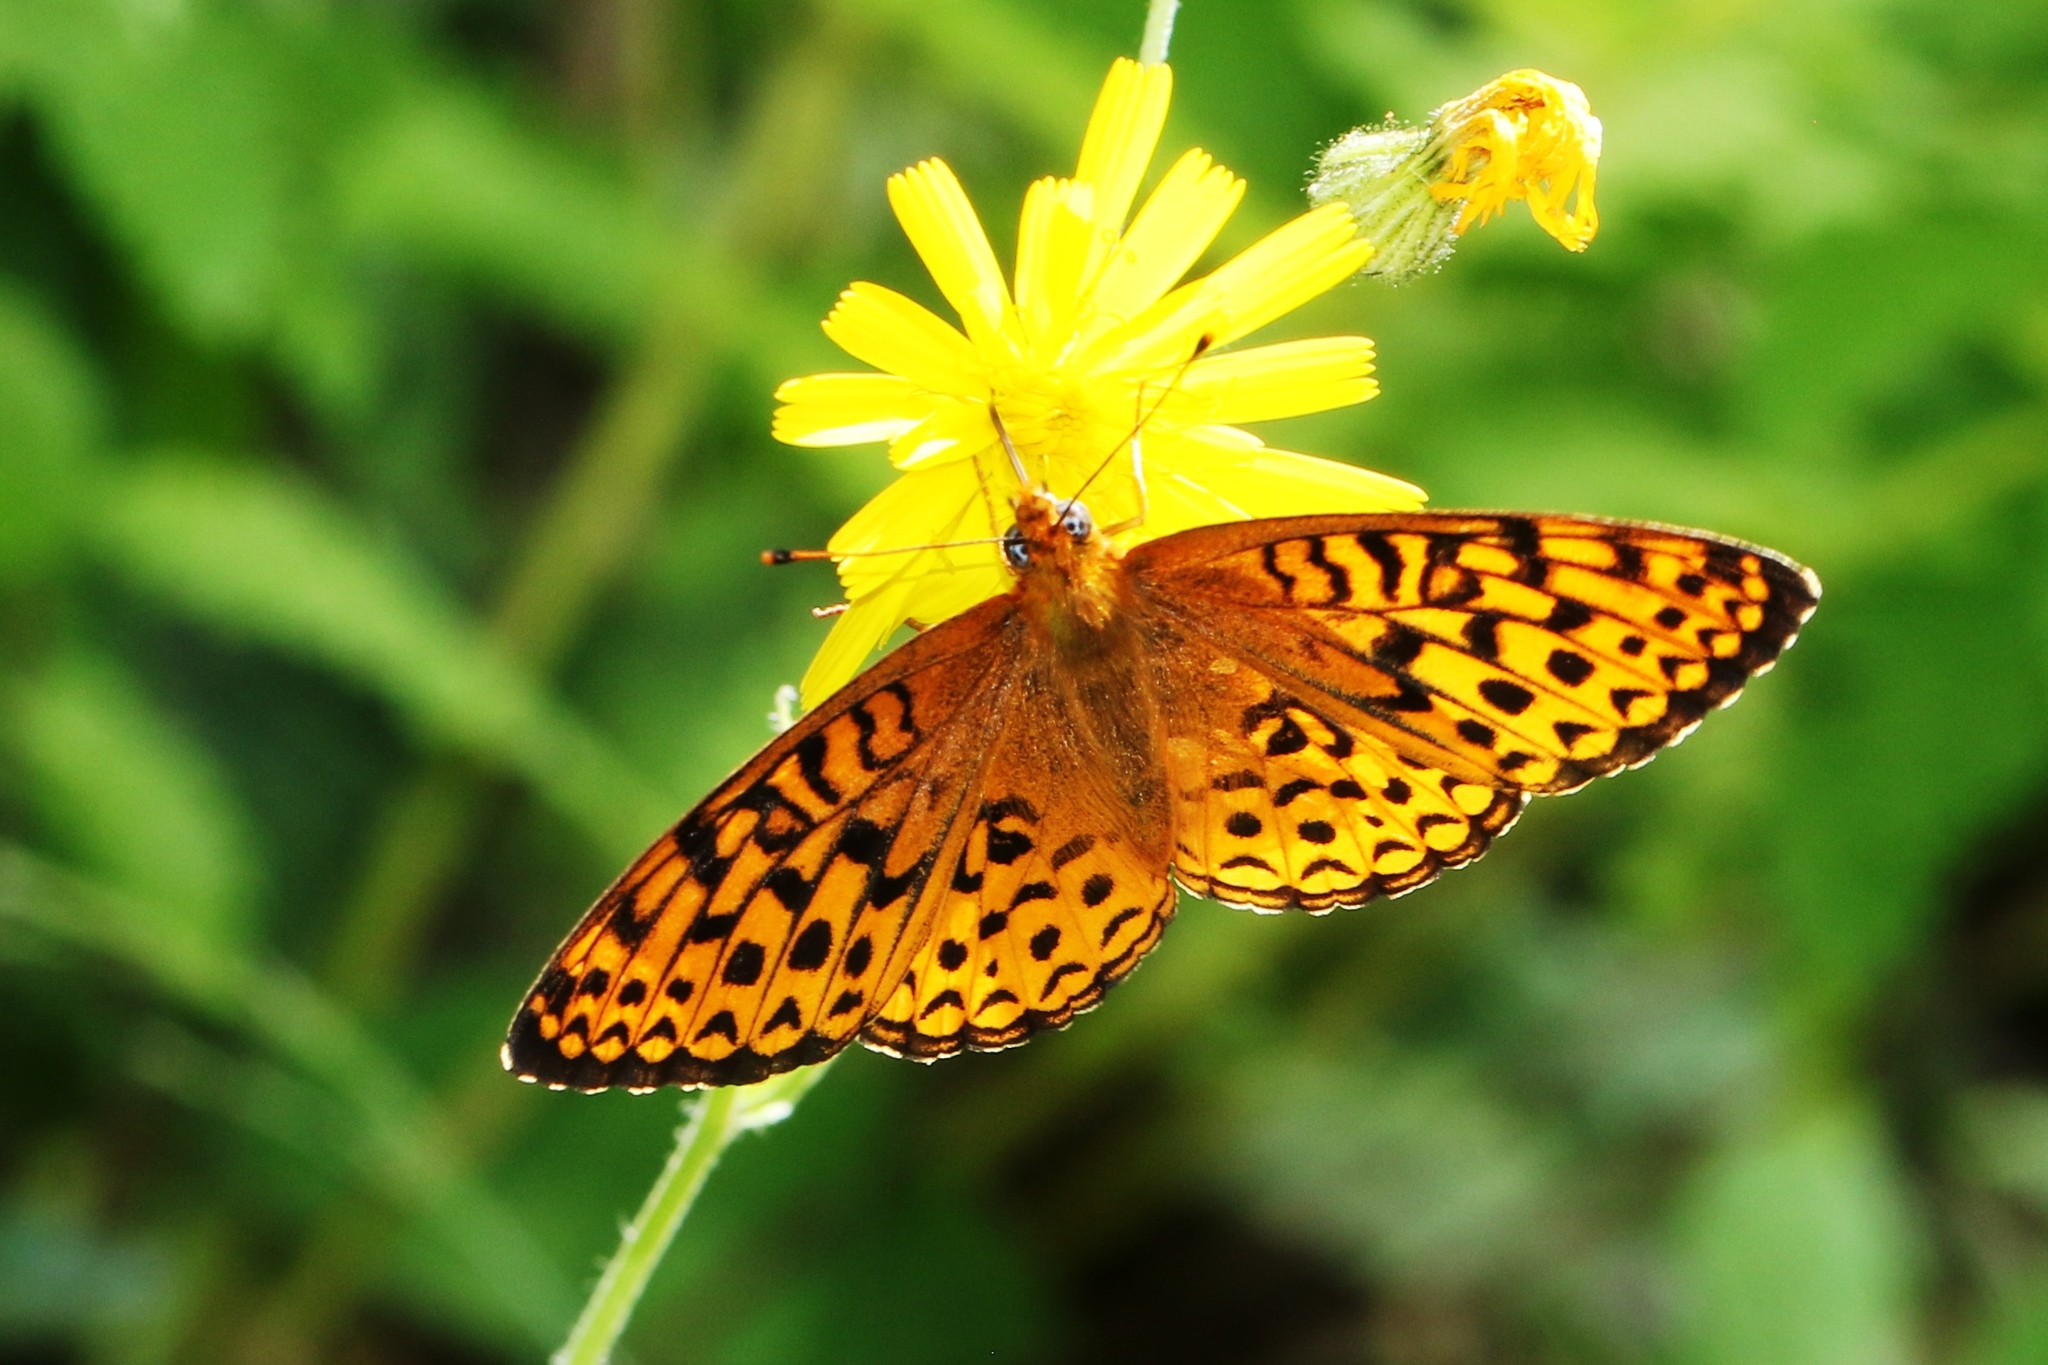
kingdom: Animalia
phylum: Arthropoda
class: Insecta
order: Lepidoptera
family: Nymphalidae
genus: Speyeria
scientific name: Speyeria atlantis
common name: Atlantis fritillary
